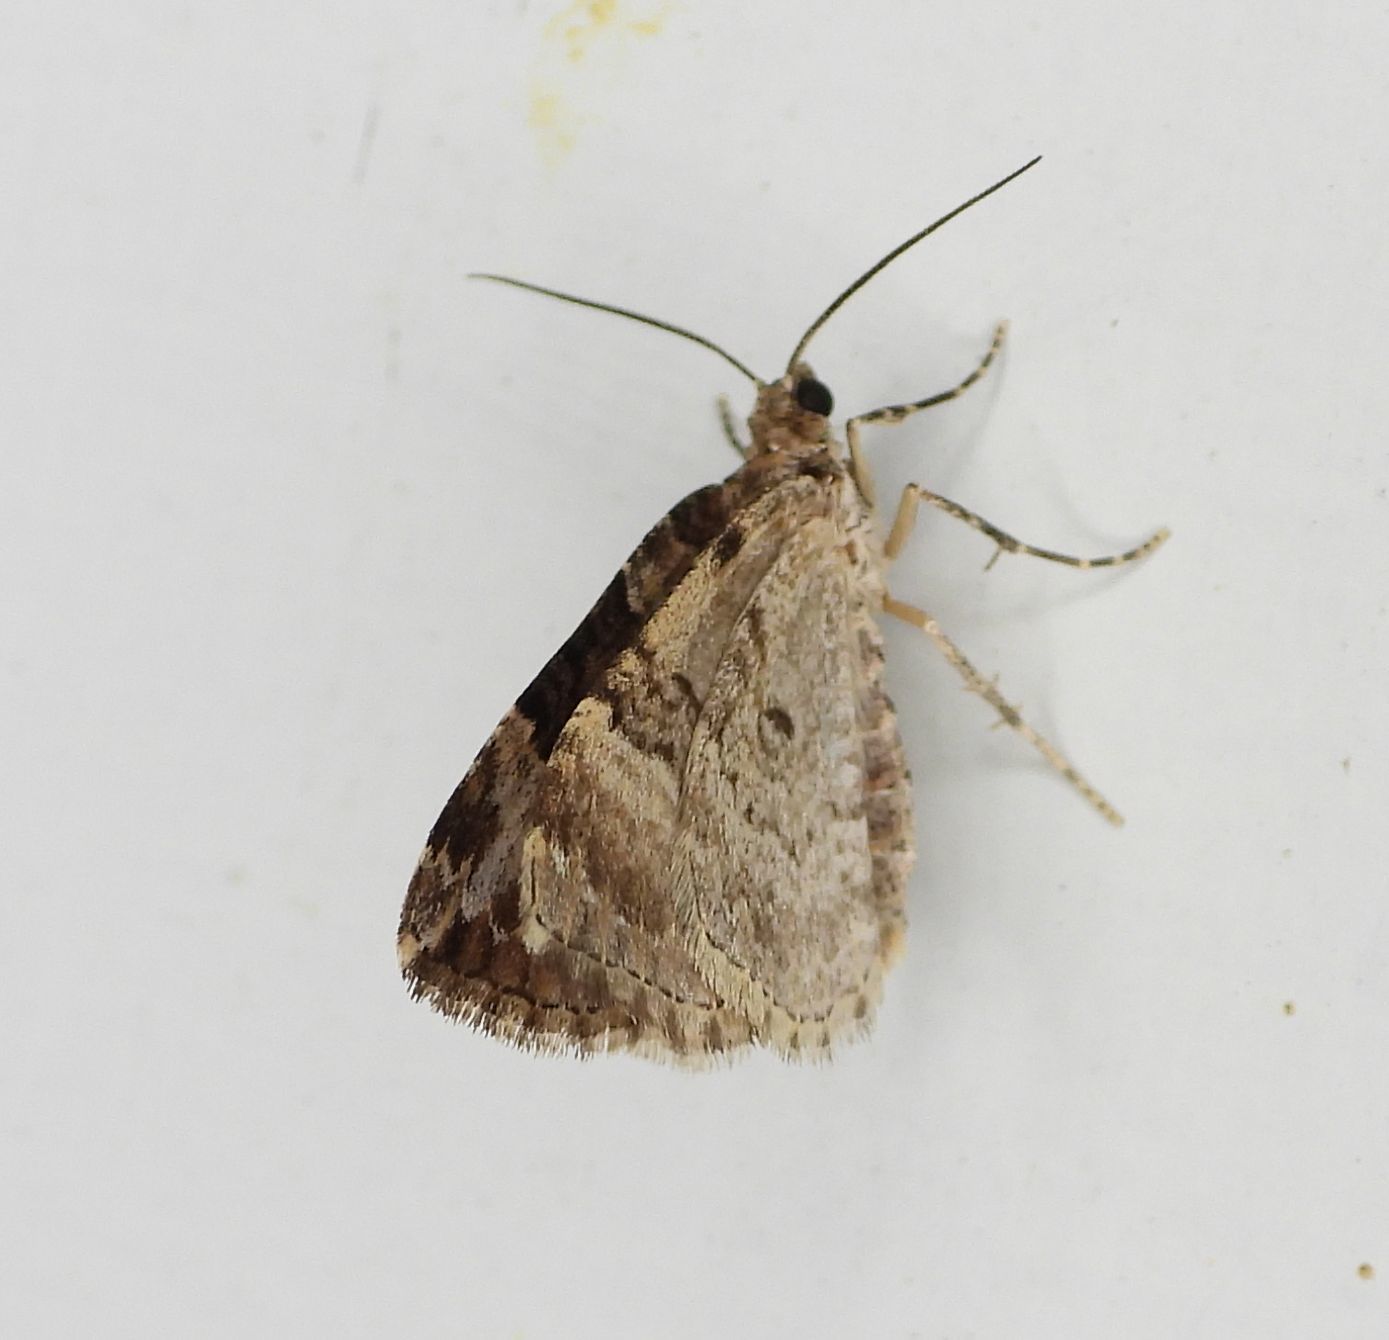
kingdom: Animalia
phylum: Arthropoda
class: Insecta
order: Lepidoptera
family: Geometridae
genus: Xanthorhoe
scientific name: Xanthorhoe lacustrata
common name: Toothed brown carpet
